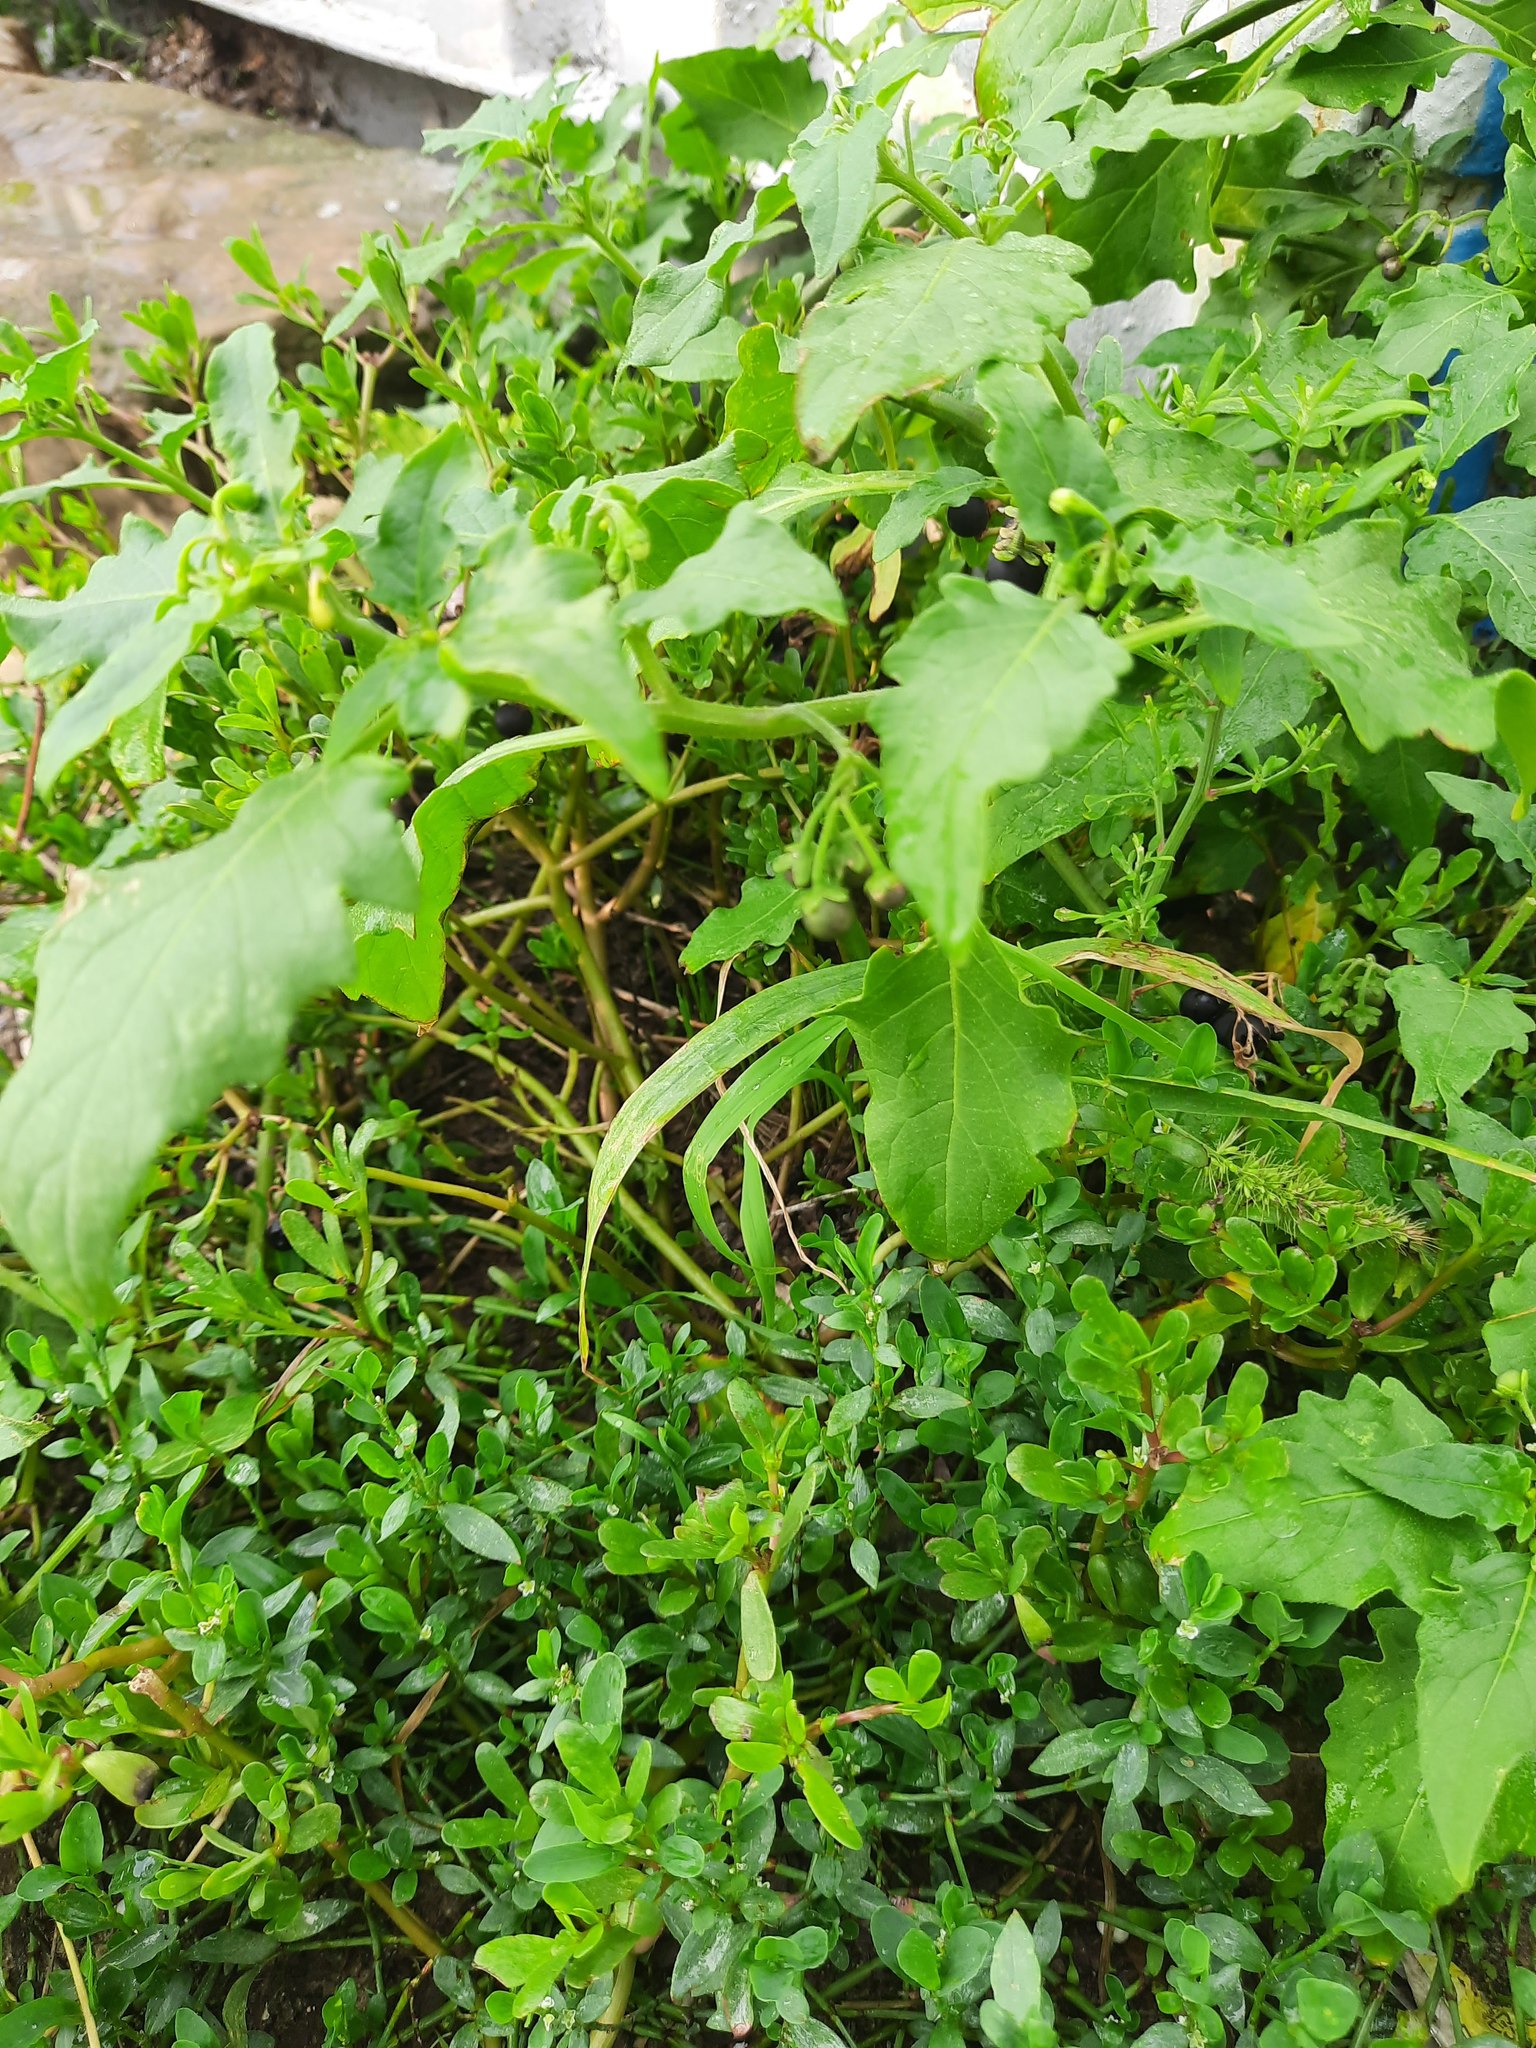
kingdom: Plantae
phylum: Tracheophyta
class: Magnoliopsida
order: Solanales
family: Solanaceae
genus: Solanum
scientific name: Solanum nigrum
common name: Black nightshade
